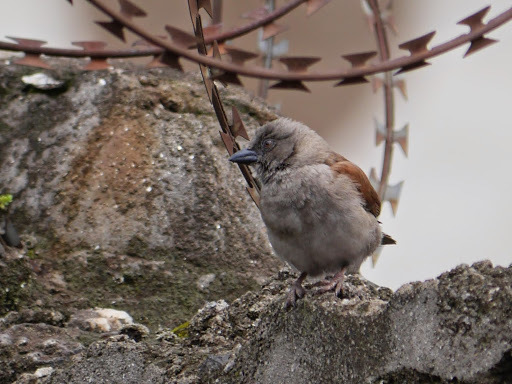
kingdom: Animalia
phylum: Chordata
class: Aves
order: Passeriformes
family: Passeridae
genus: Passer
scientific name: Passer griseus
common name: Northern grey-headed sparrow
